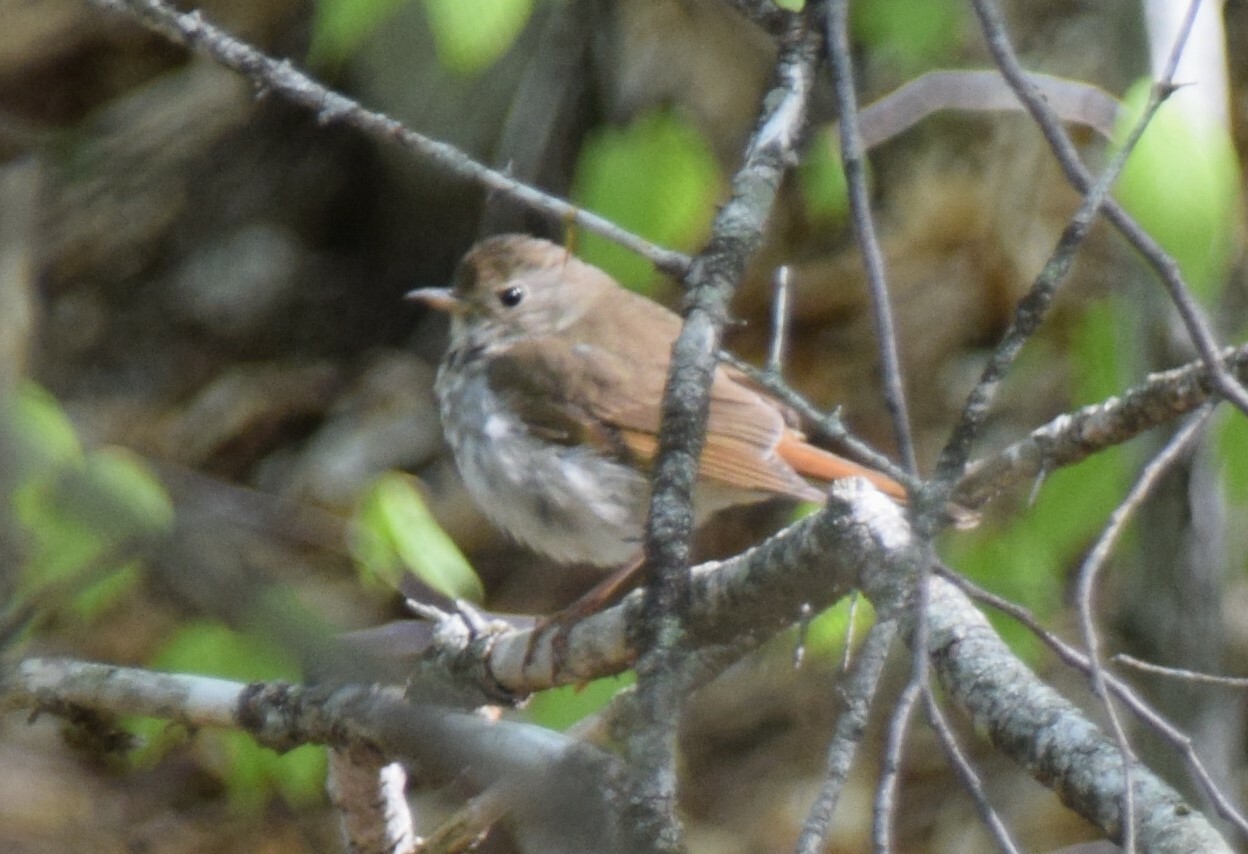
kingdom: Animalia
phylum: Chordata
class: Aves
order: Passeriformes
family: Turdidae
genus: Catharus
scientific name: Catharus guttatus
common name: Hermit thrush
